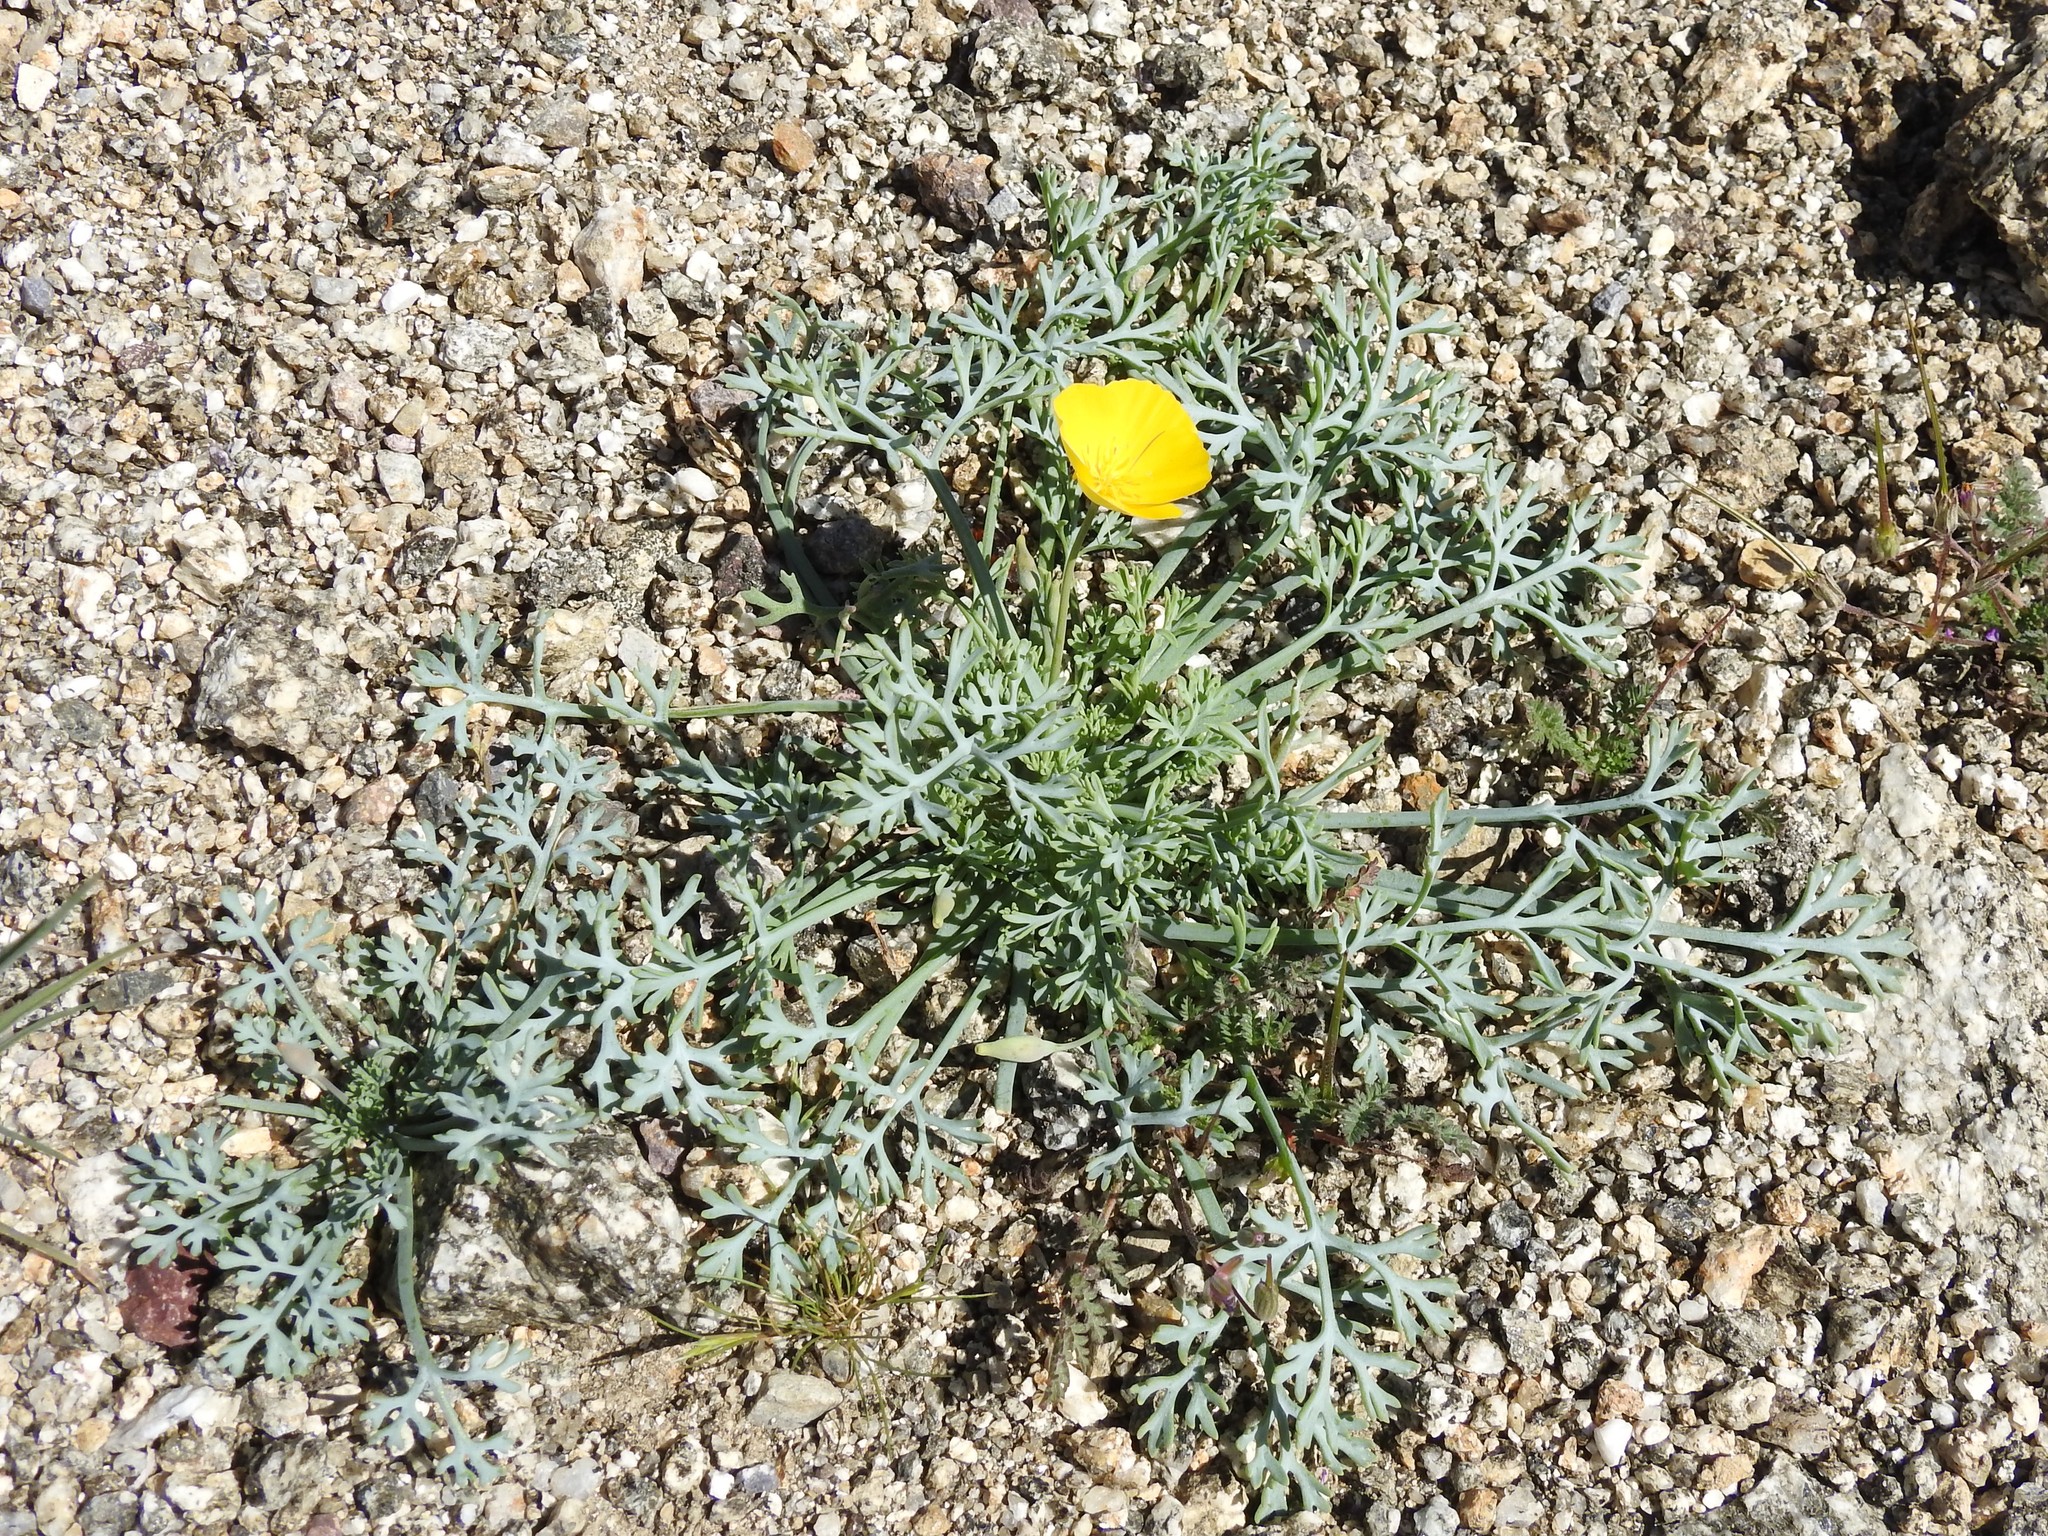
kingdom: Plantae
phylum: Tracheophyta
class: Magnoliopsida
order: Ranunculales
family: Papaveraceae
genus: Eschscholzia
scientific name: Eschscholzia parishii
